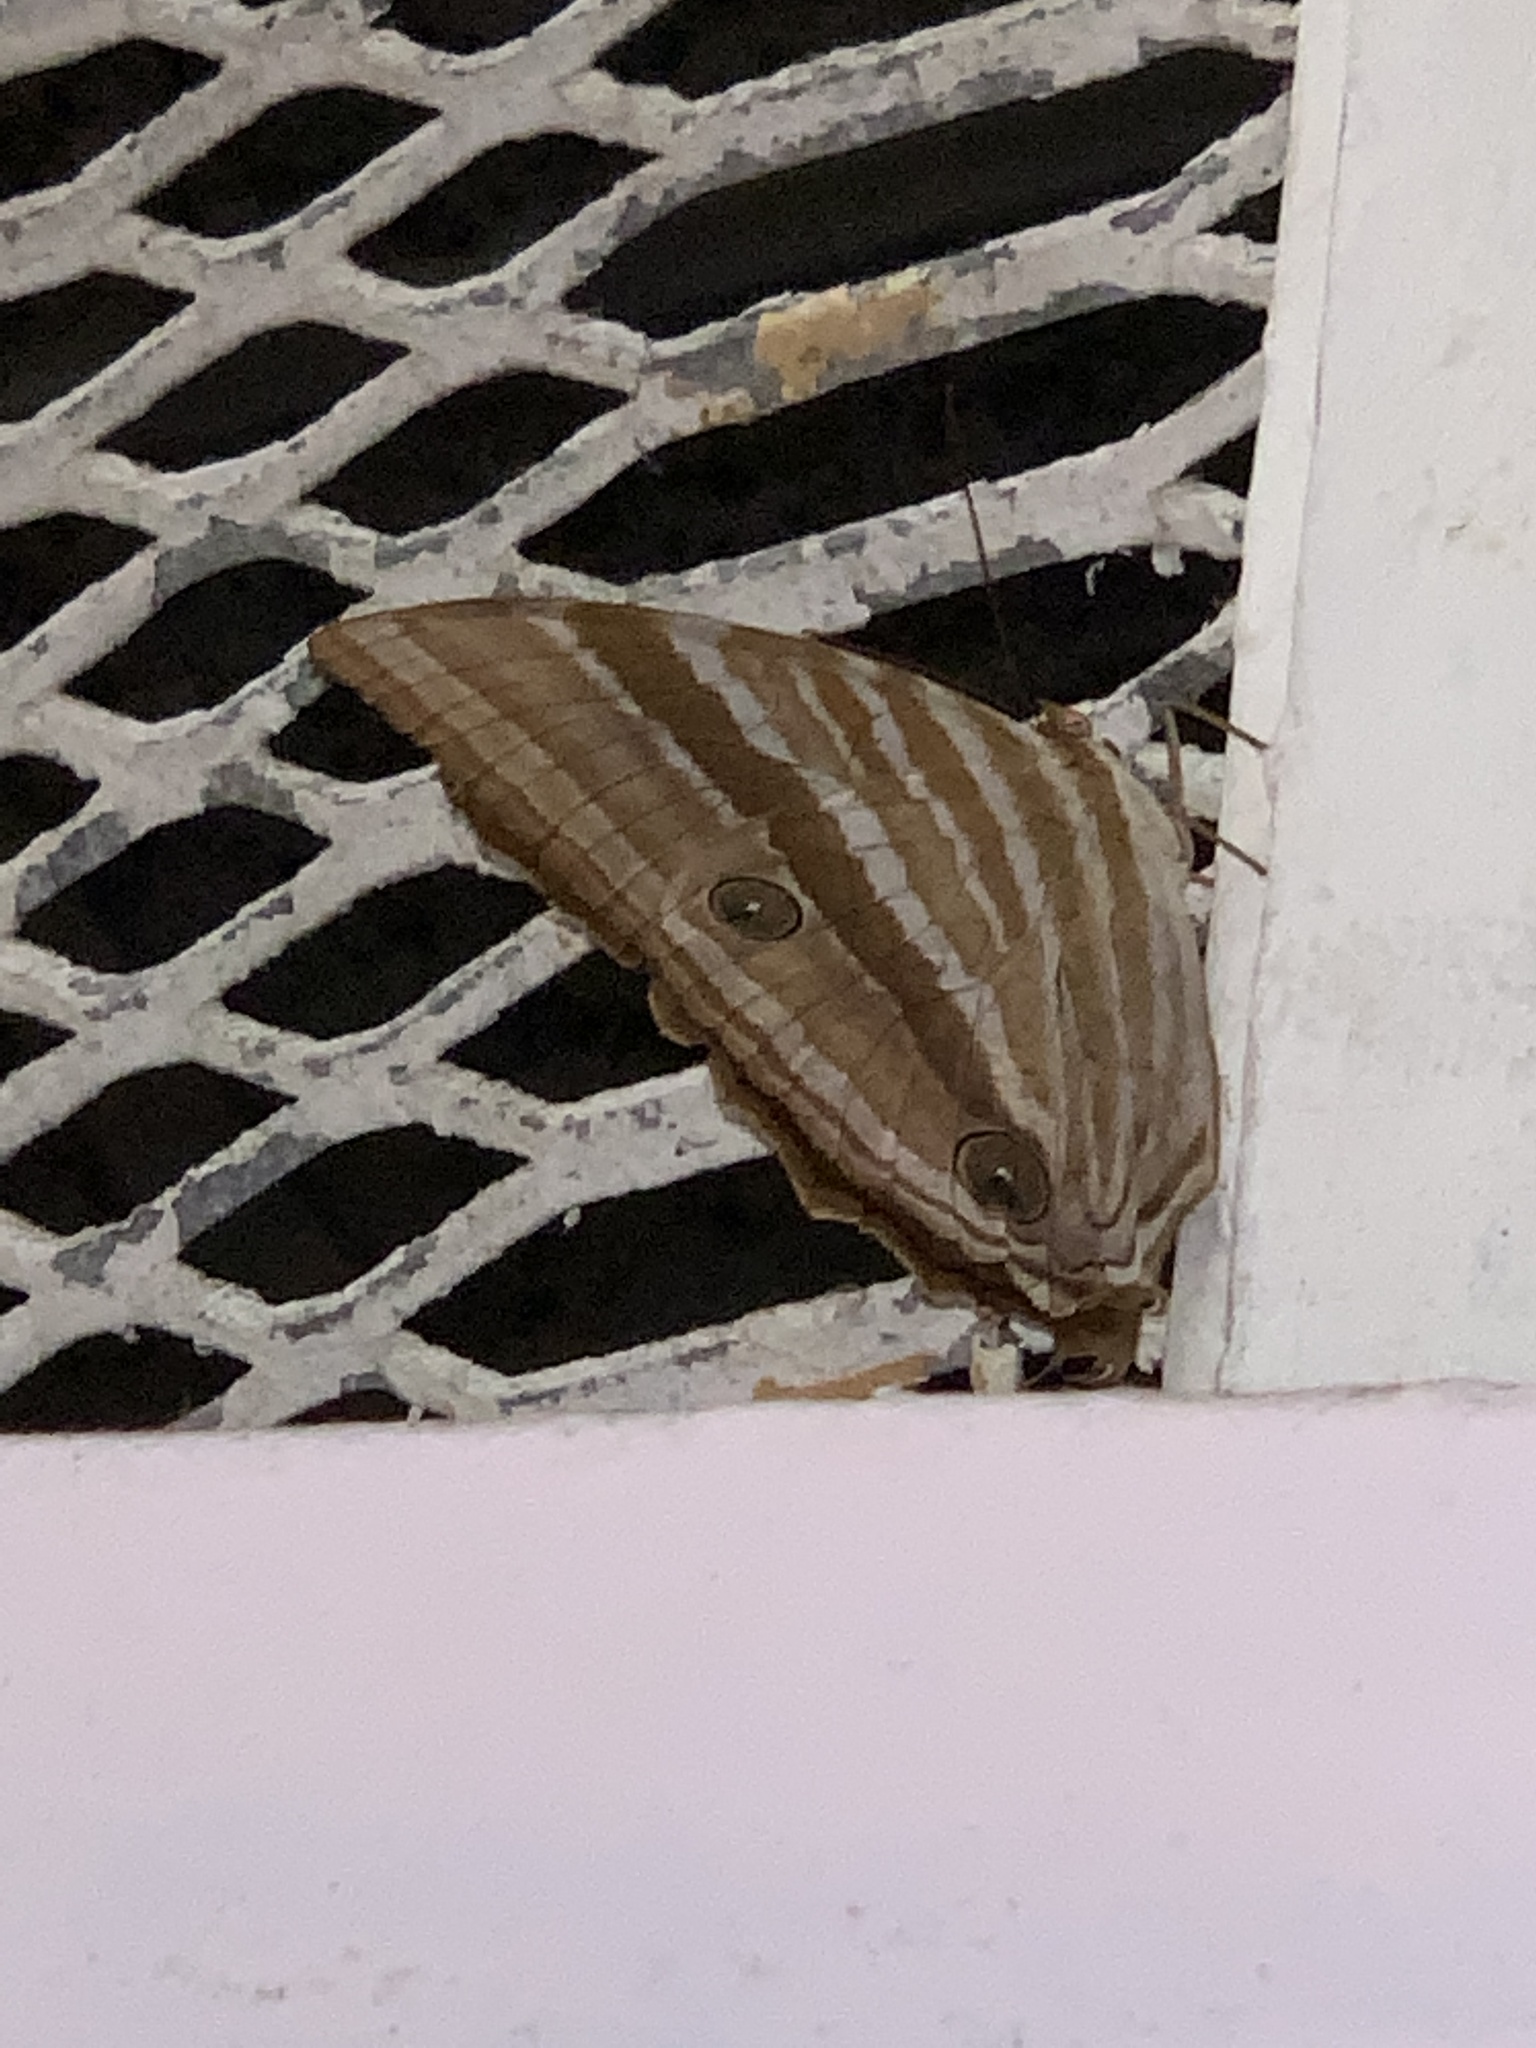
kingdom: Animalia
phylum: Arthropoda
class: Insecta
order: Lepidoptera
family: Nymphalidae
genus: Amathusia
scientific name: Amathusia phidippus
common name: Palm king
